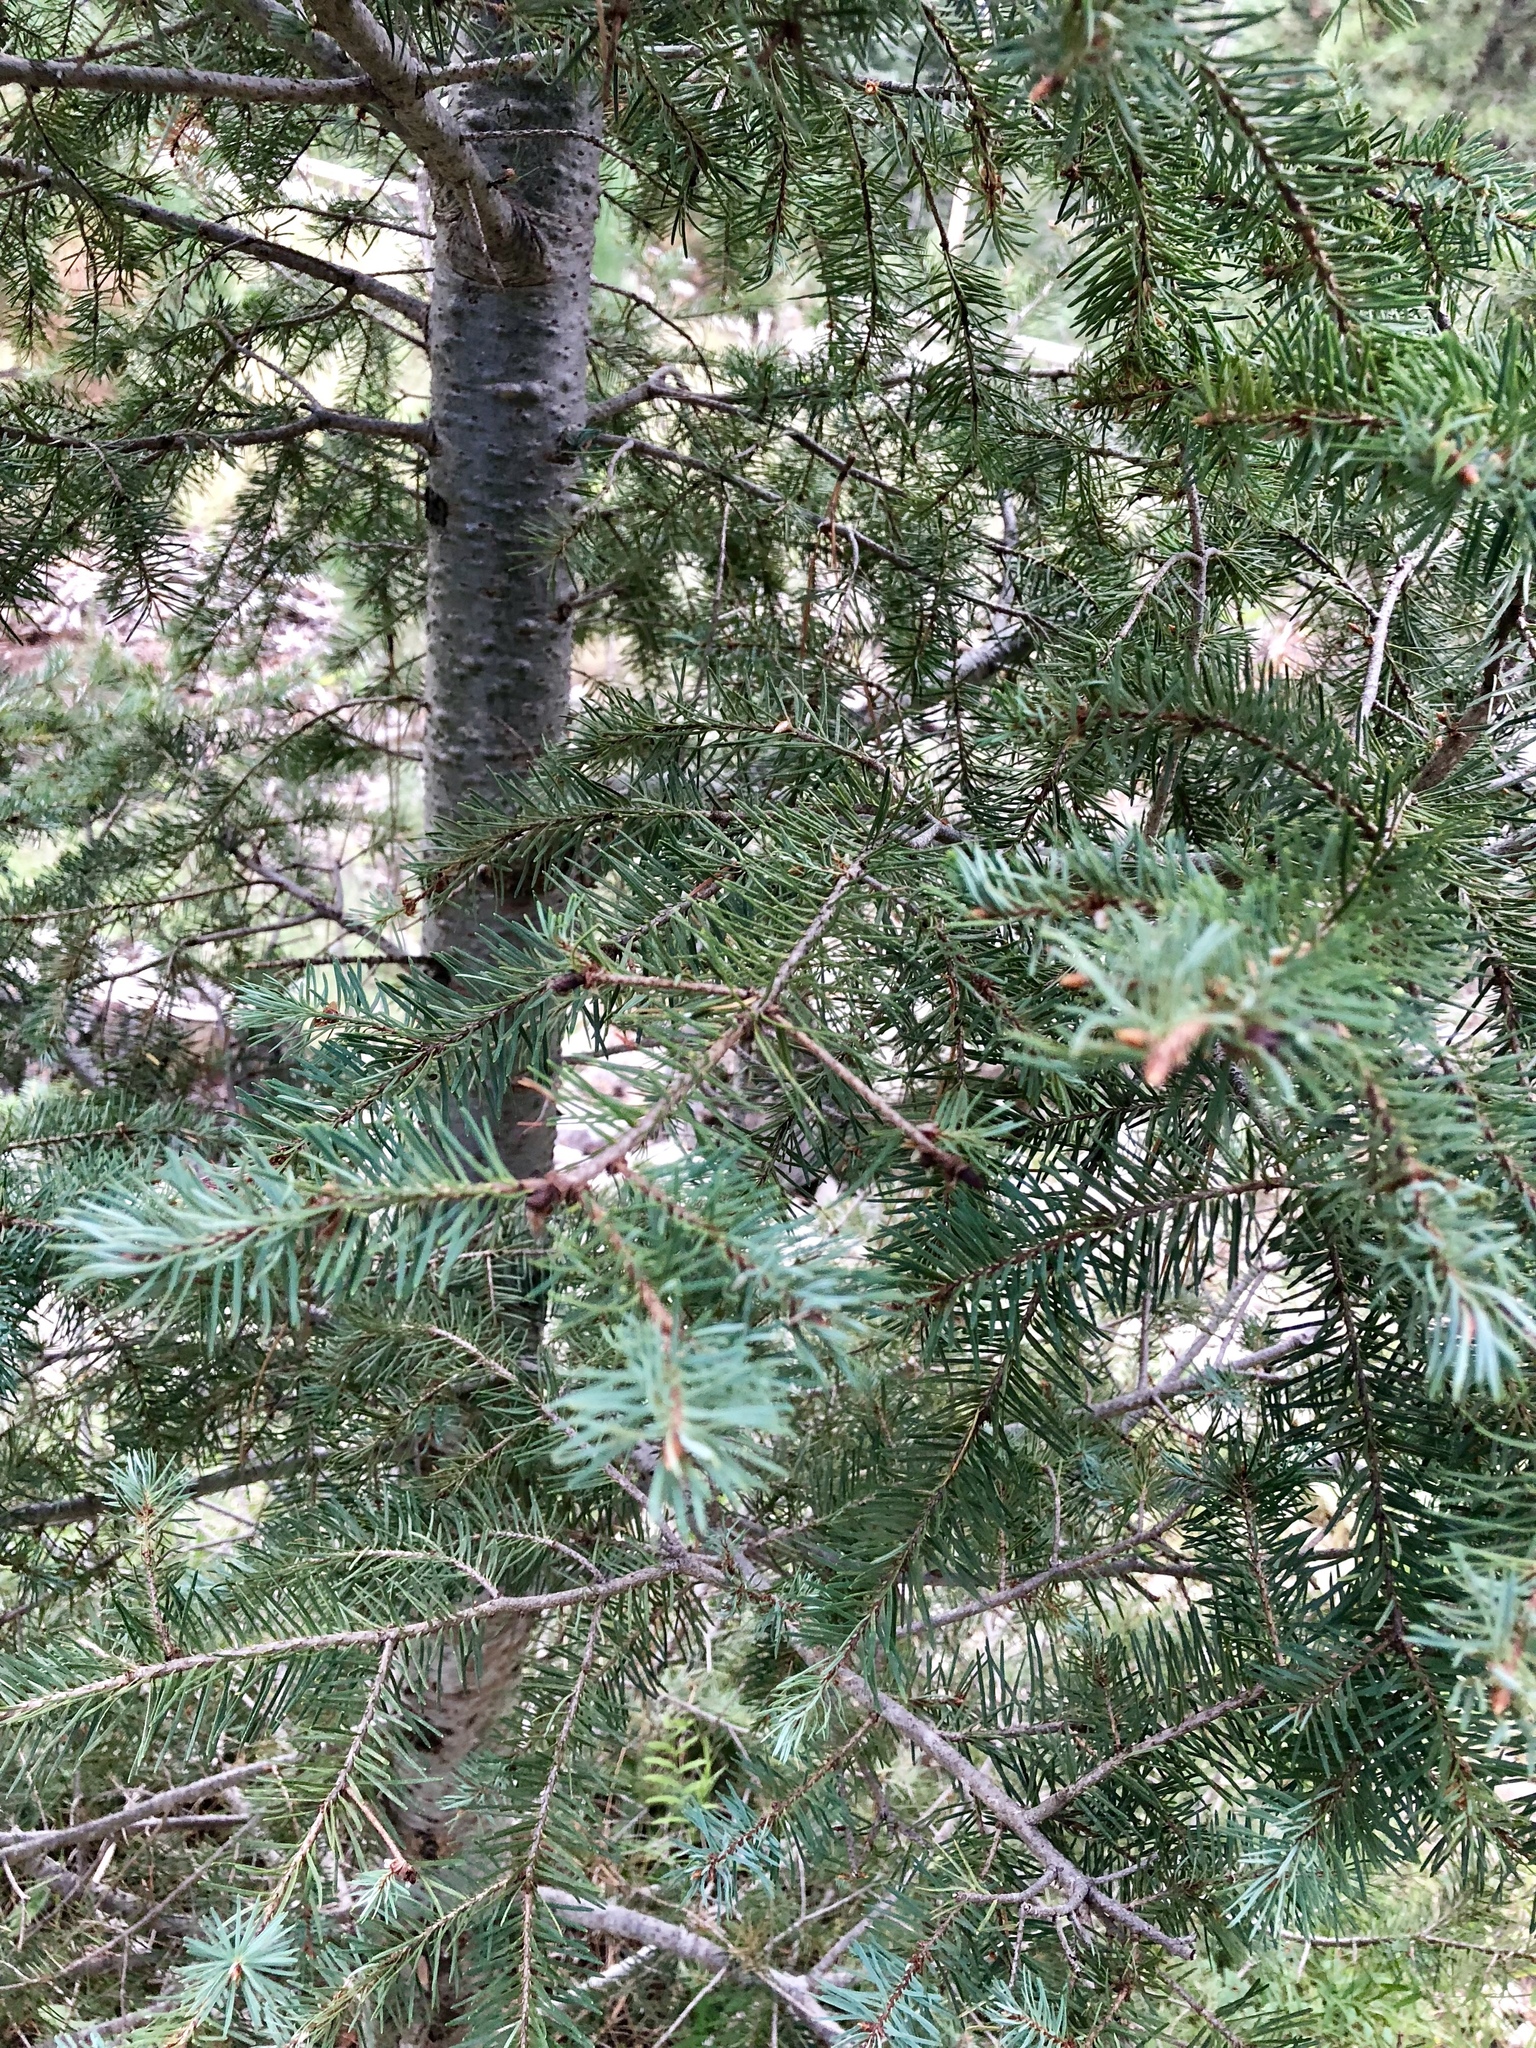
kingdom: Plantae
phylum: Tracheophyta
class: Pinopsida
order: Pinales
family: Pinaceae
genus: Pseudotsuga
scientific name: Pseudotsuga menziesii
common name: Douglas fir
